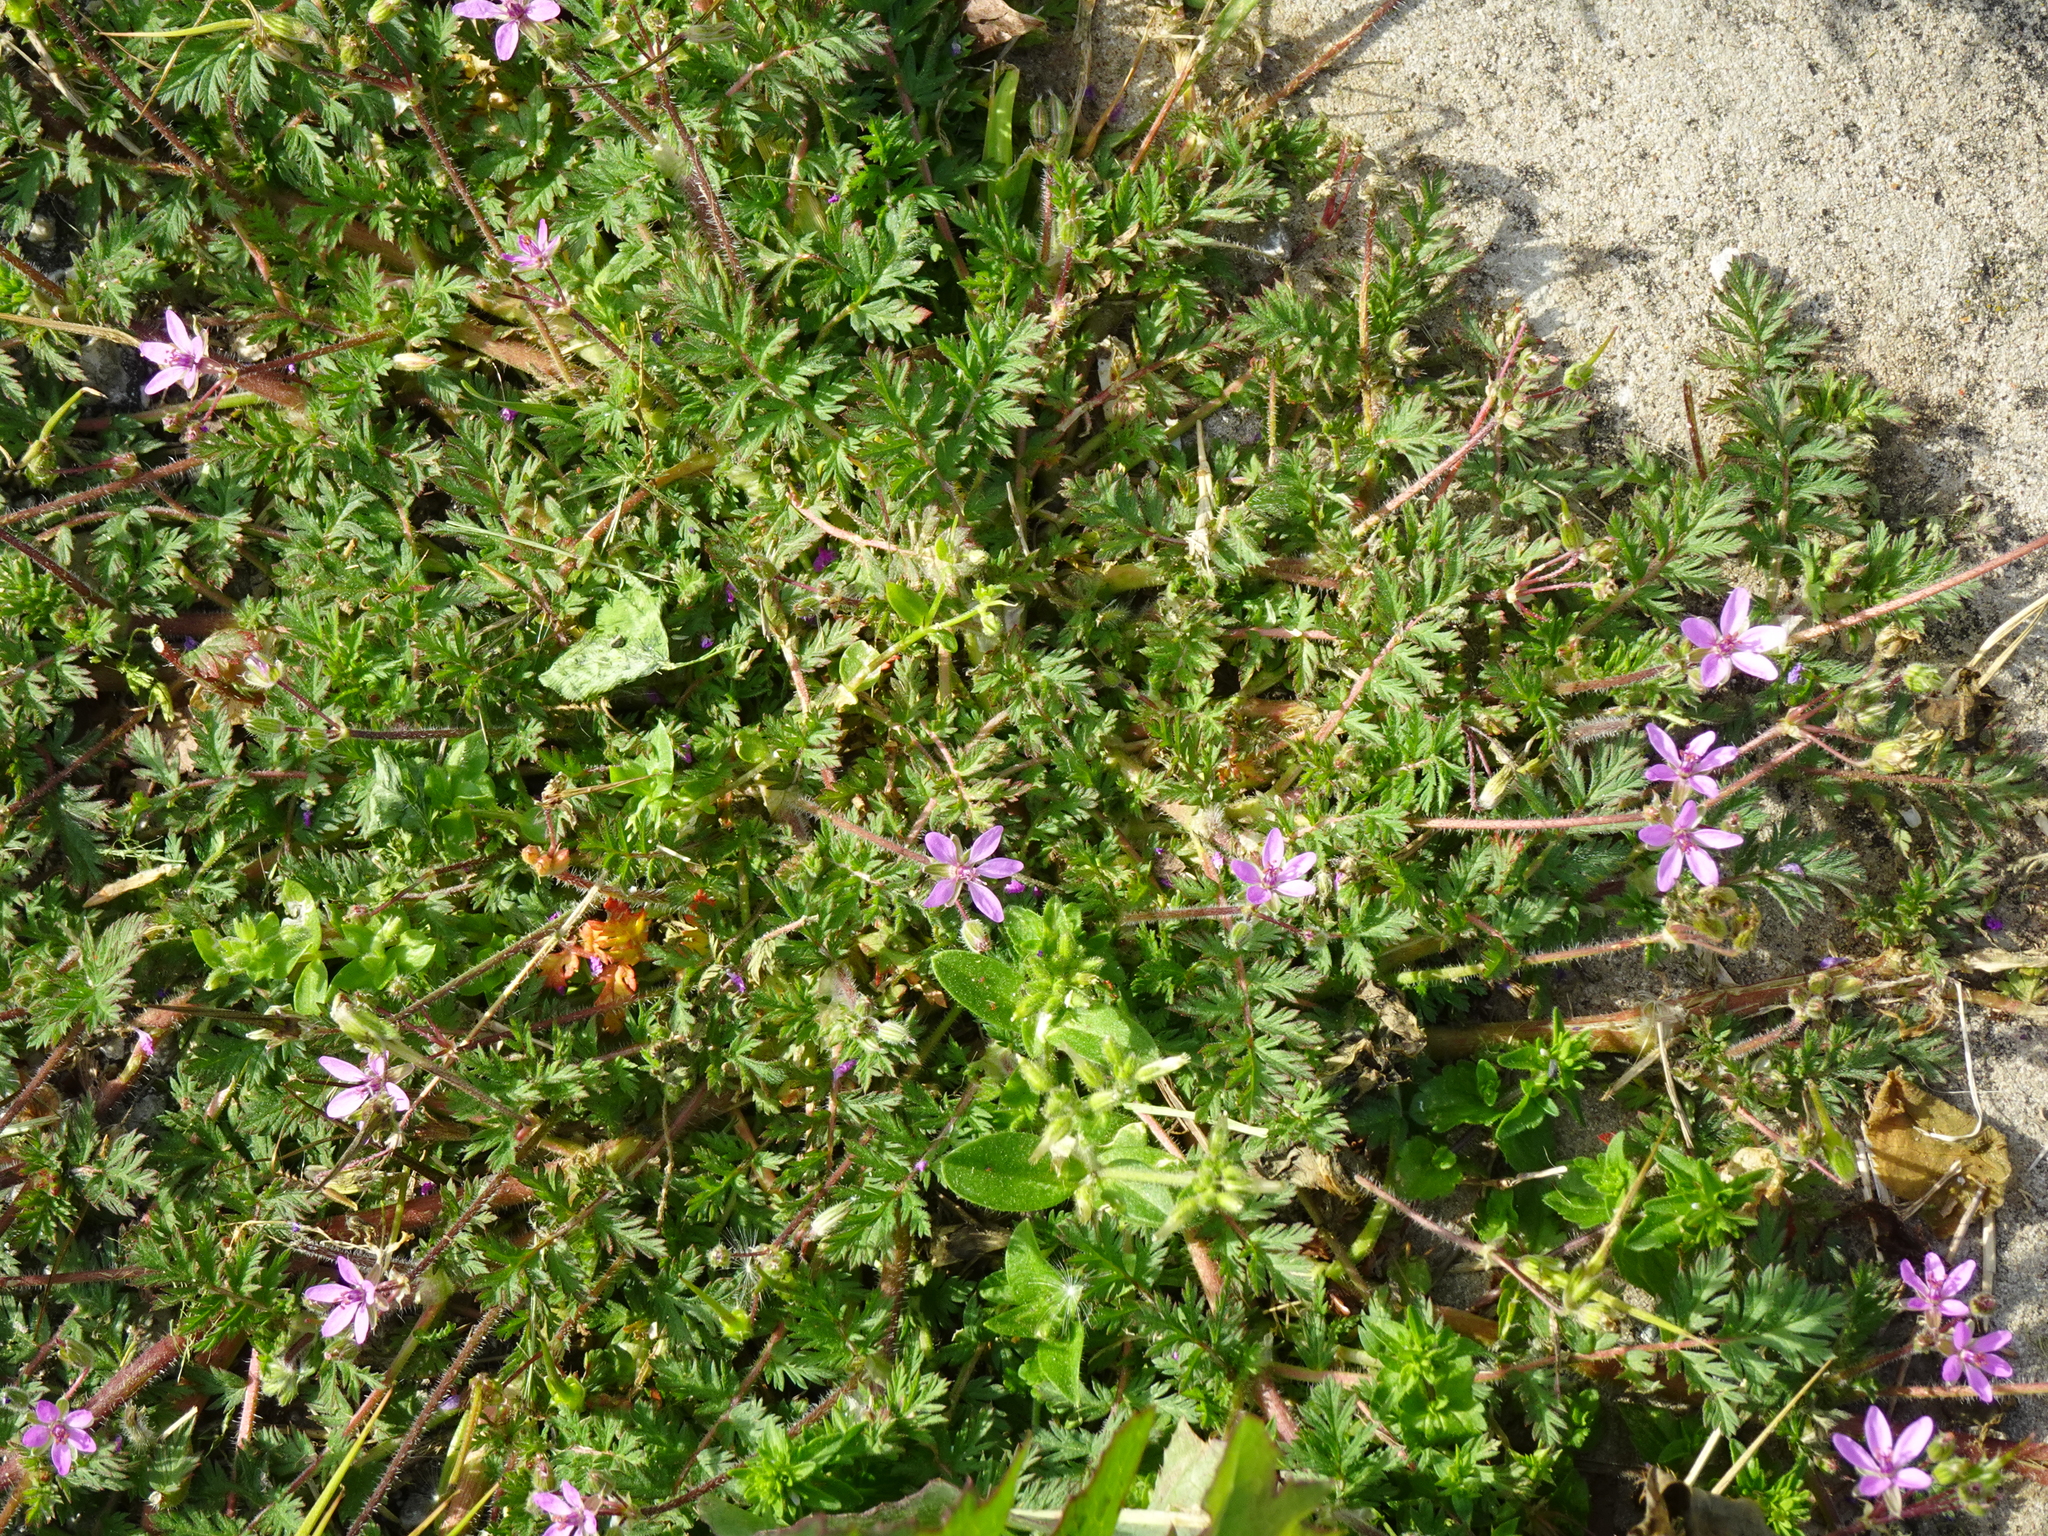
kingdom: Plantae
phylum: Tracheophyta
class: Magnoliopsida
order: Geraniales
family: Geraniaceae
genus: Erodium
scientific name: Erodium cicutarium
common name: Common stork's-bill
